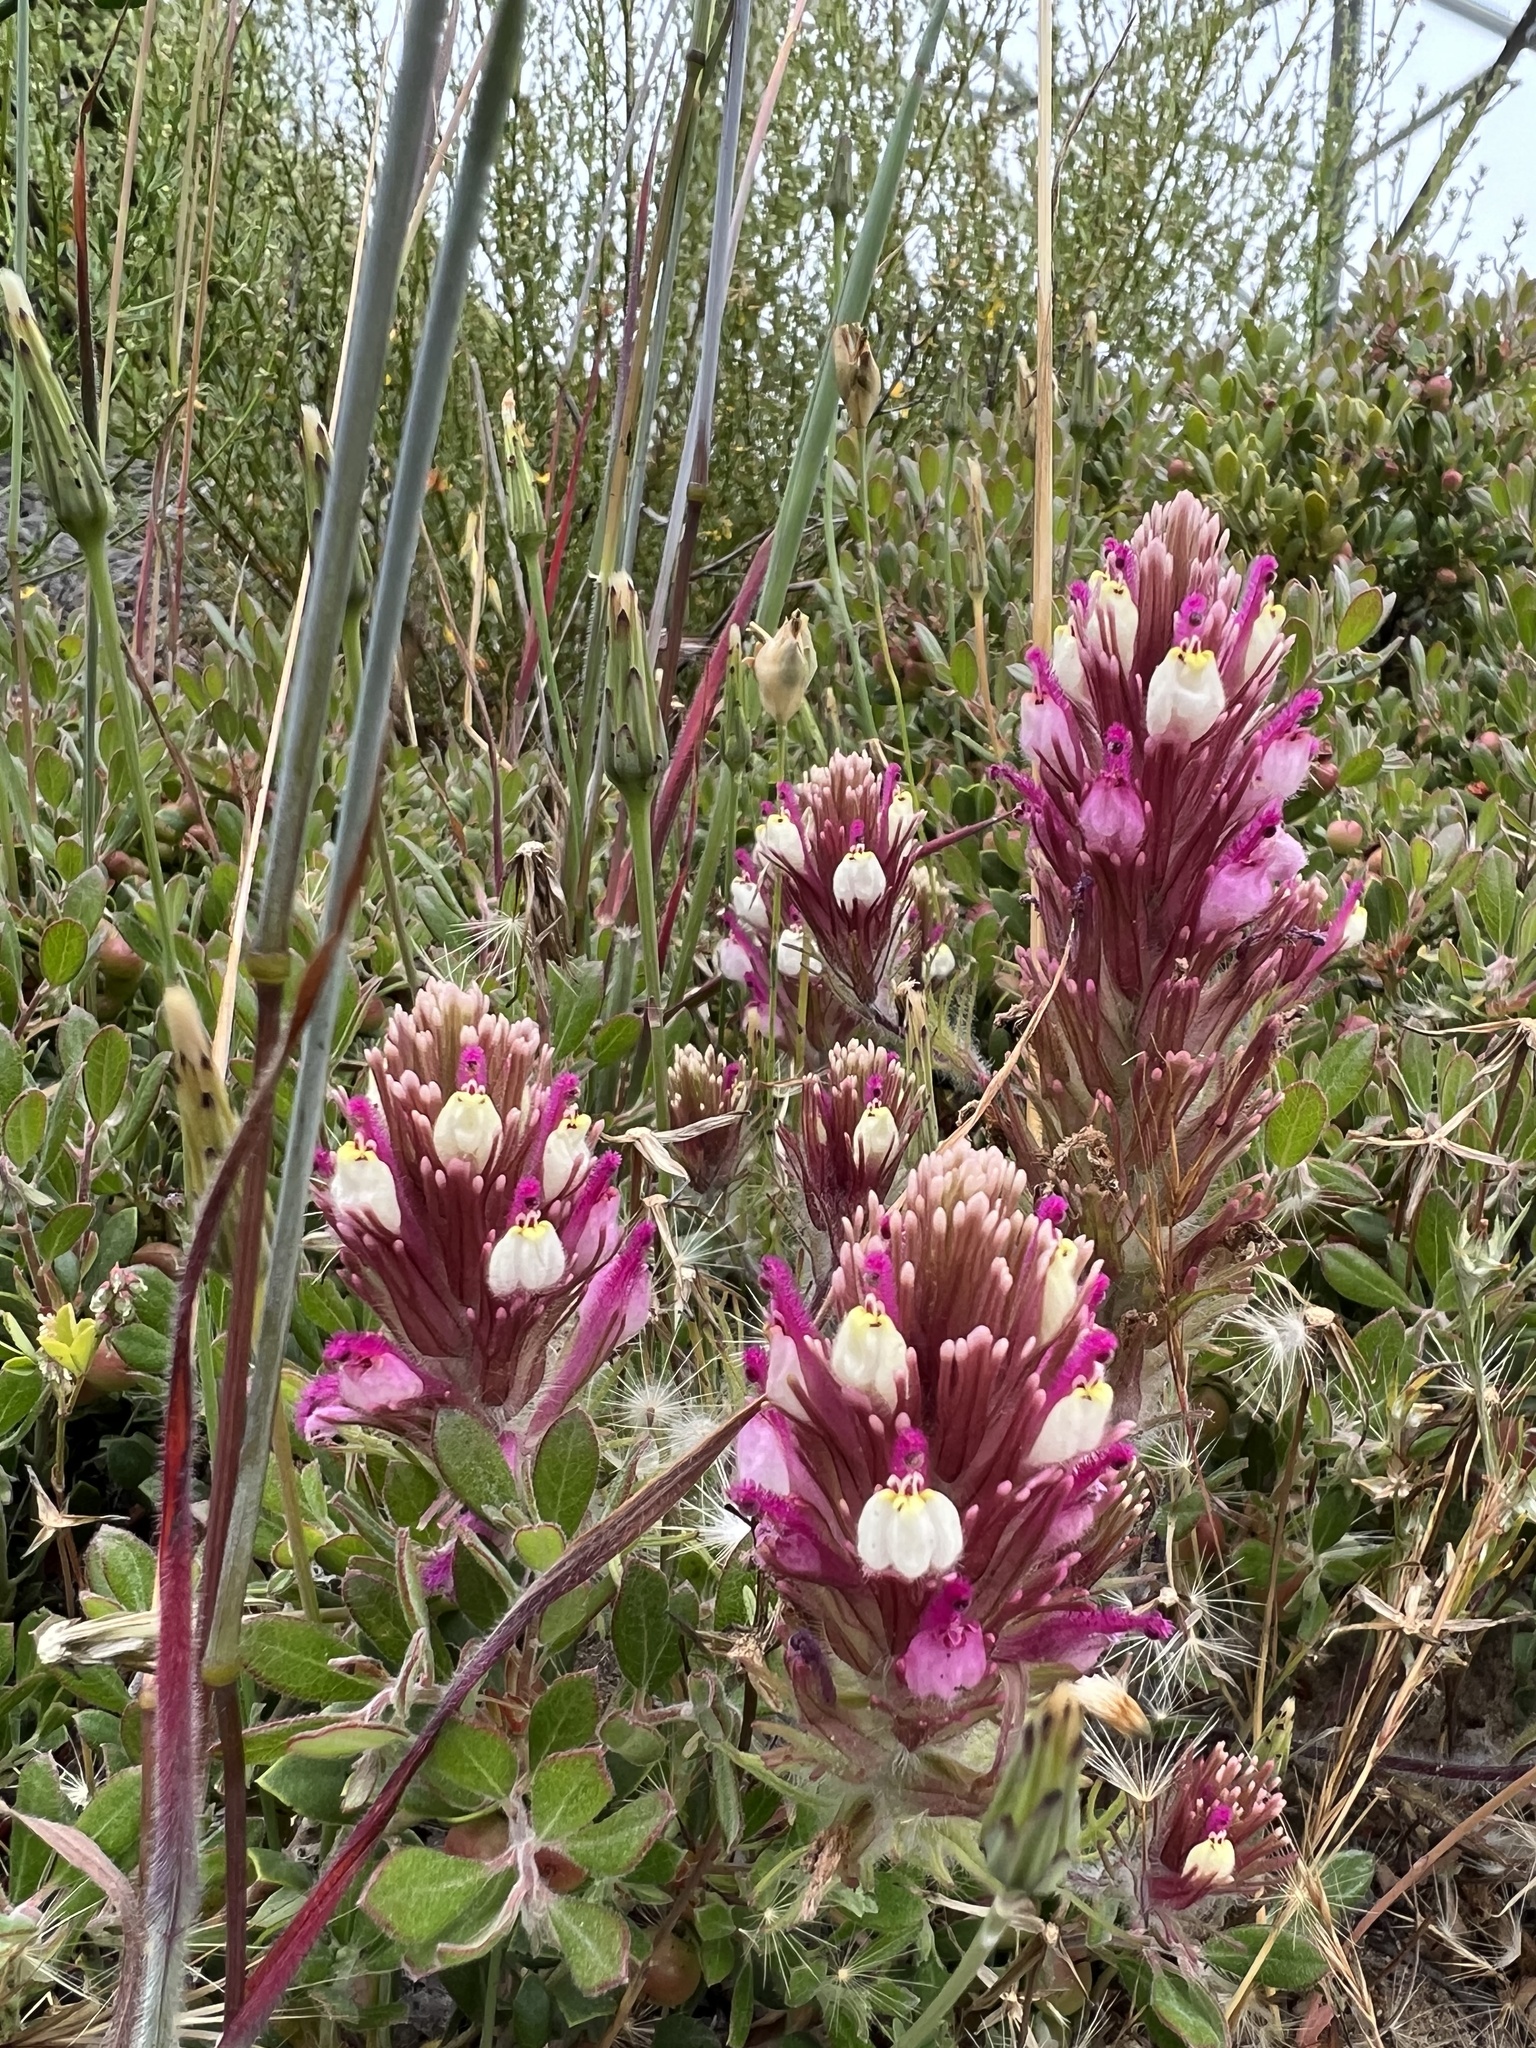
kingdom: Plantae
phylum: Tracheophyta
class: Magnoliopsida
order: Lamiales
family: Orobanchaceae
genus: Castilleja
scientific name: Castilleja exserta
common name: Purple owl-clover
